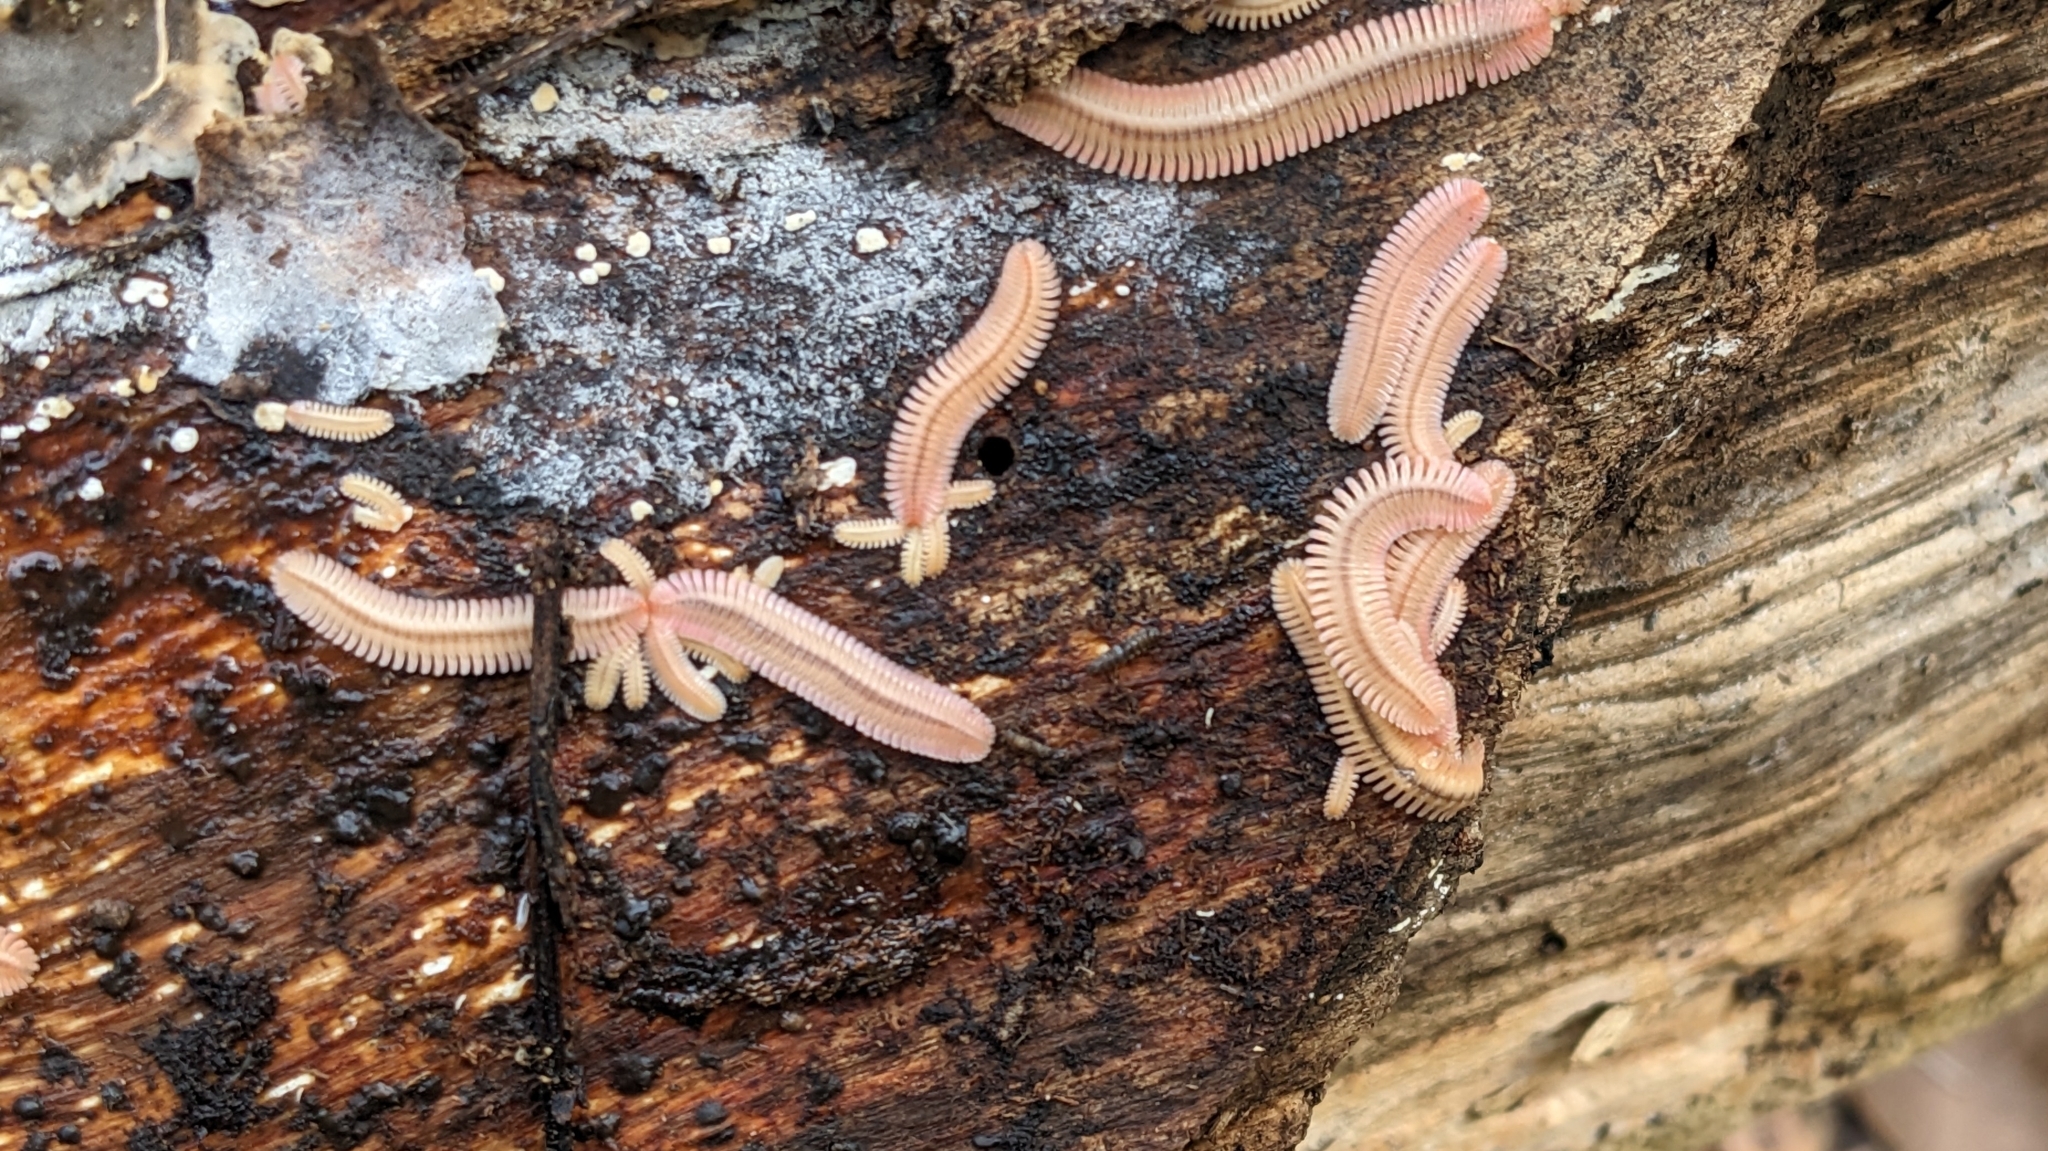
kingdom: Animalia
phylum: Arthropoda
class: Diplopoda
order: Platydesmida
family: Andrognathidae
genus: Brachycybe
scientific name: Brachycybe lecontii
